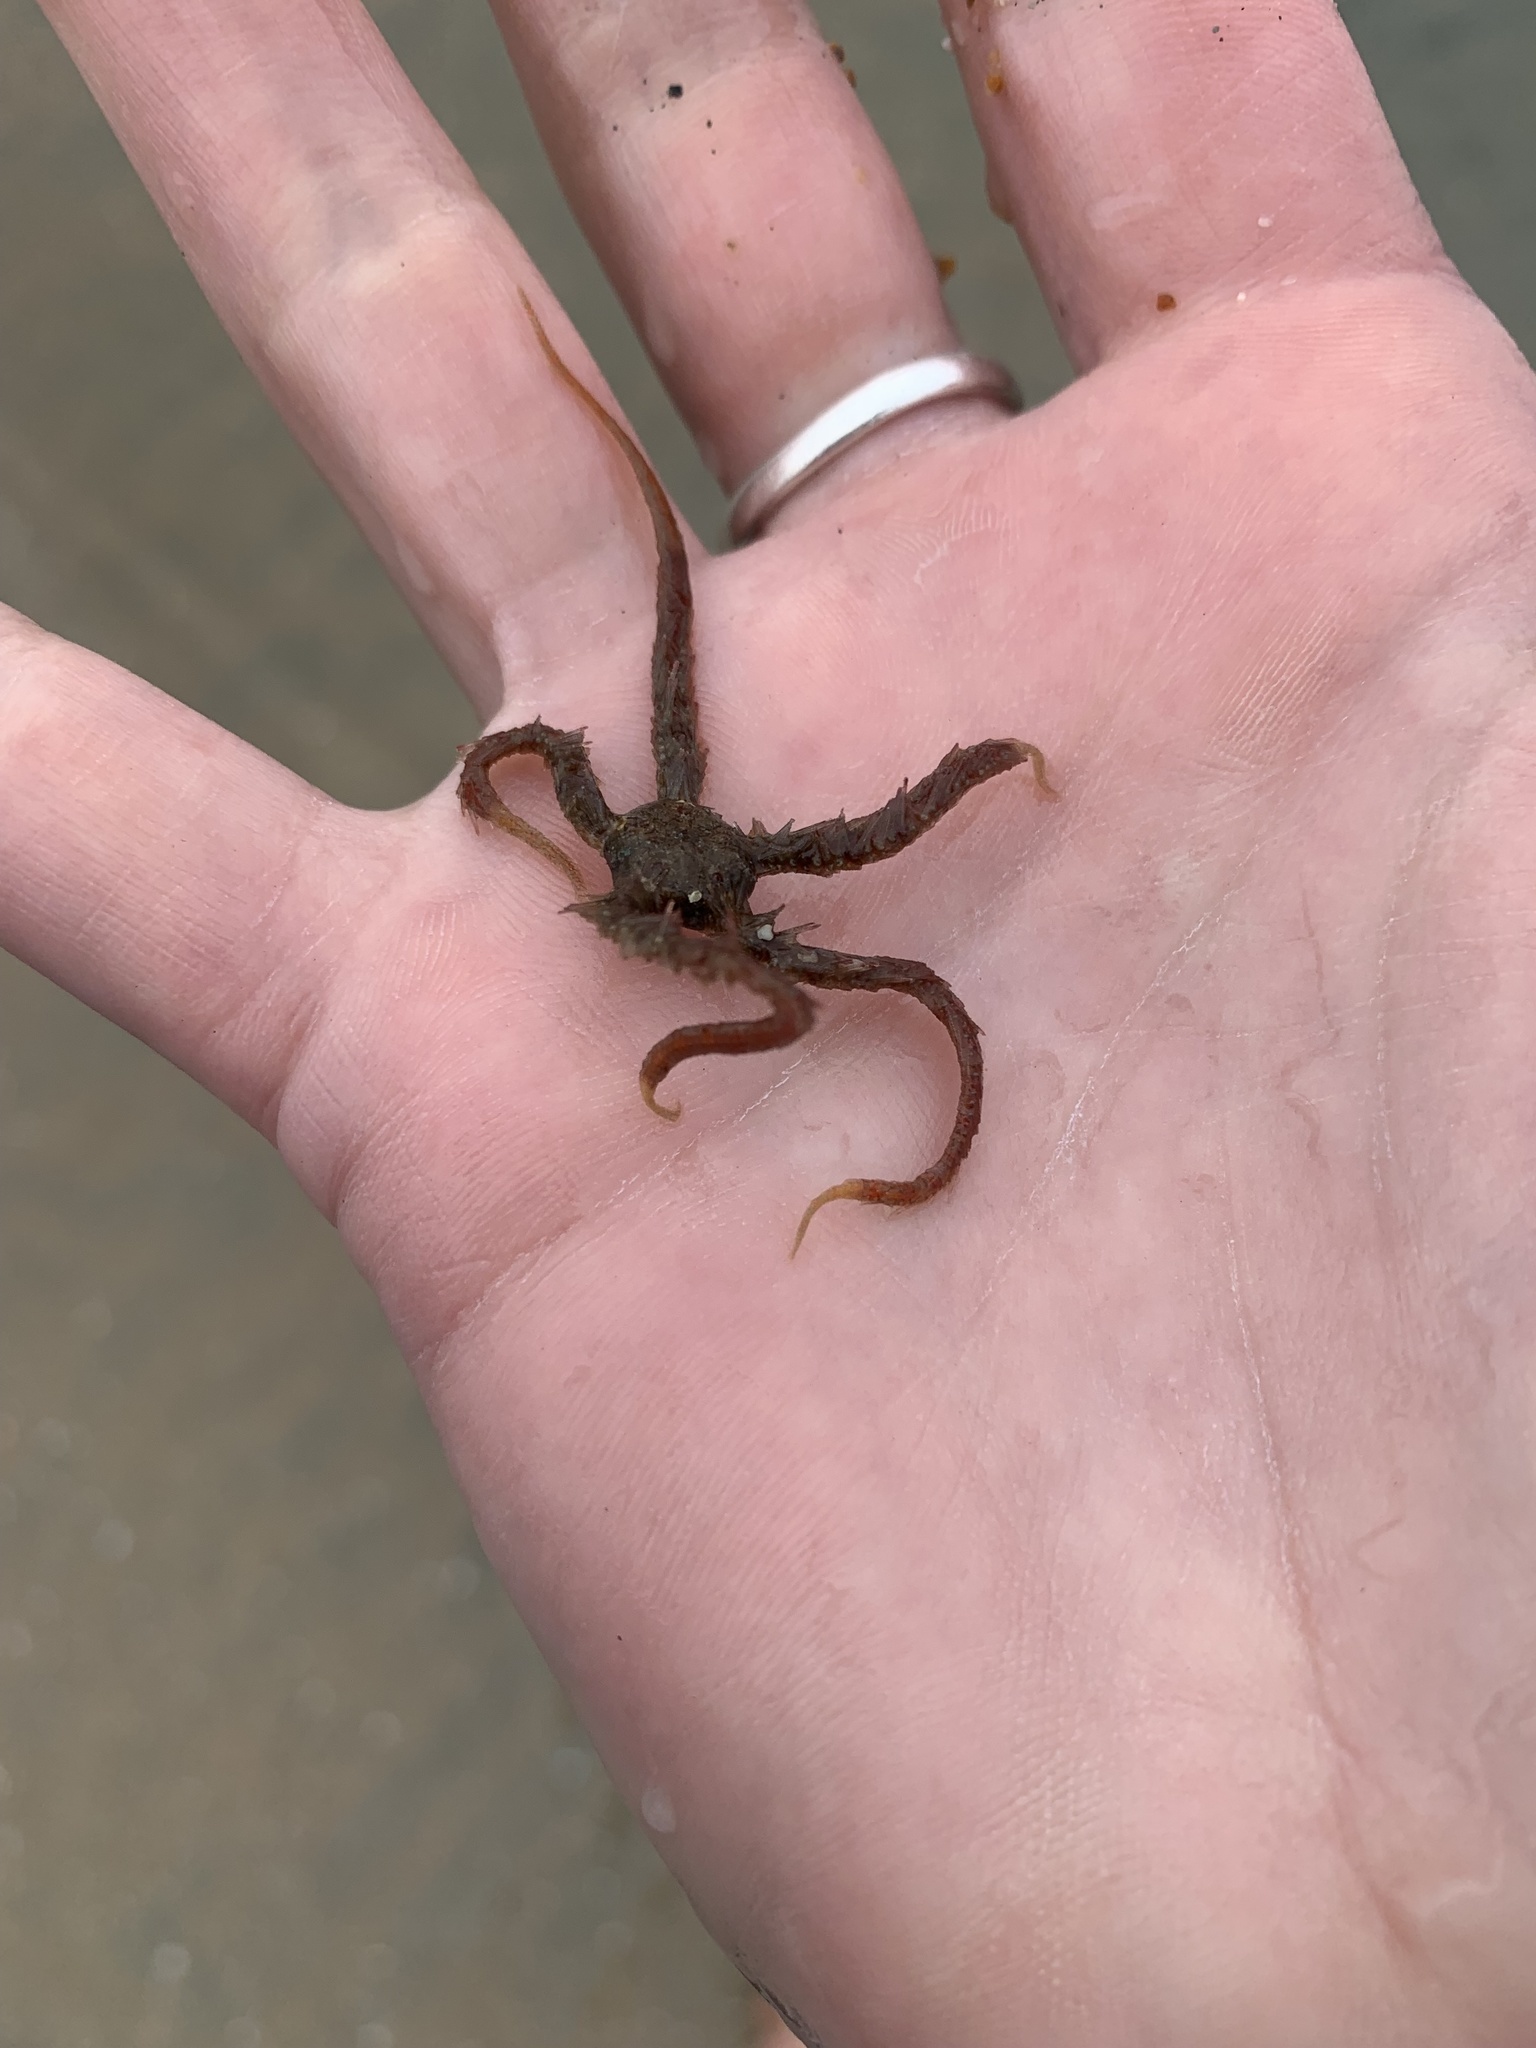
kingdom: Animalia
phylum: Echinodermata
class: Ophiuroidea
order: Amphilepidida
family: Ophiotrichidae
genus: Ophiothrix
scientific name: Ophiothrix spiculata
